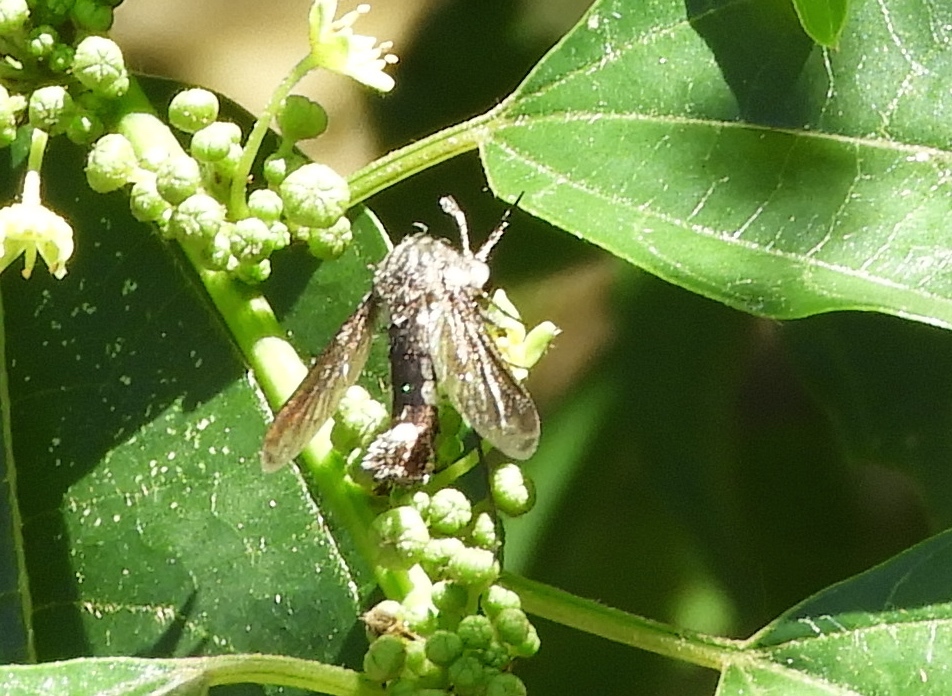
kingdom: Animalia
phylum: Arthropoda
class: Insecta
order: Diptera
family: Bombyliidae
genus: Lepidophora
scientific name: Lepidophora vetusta
